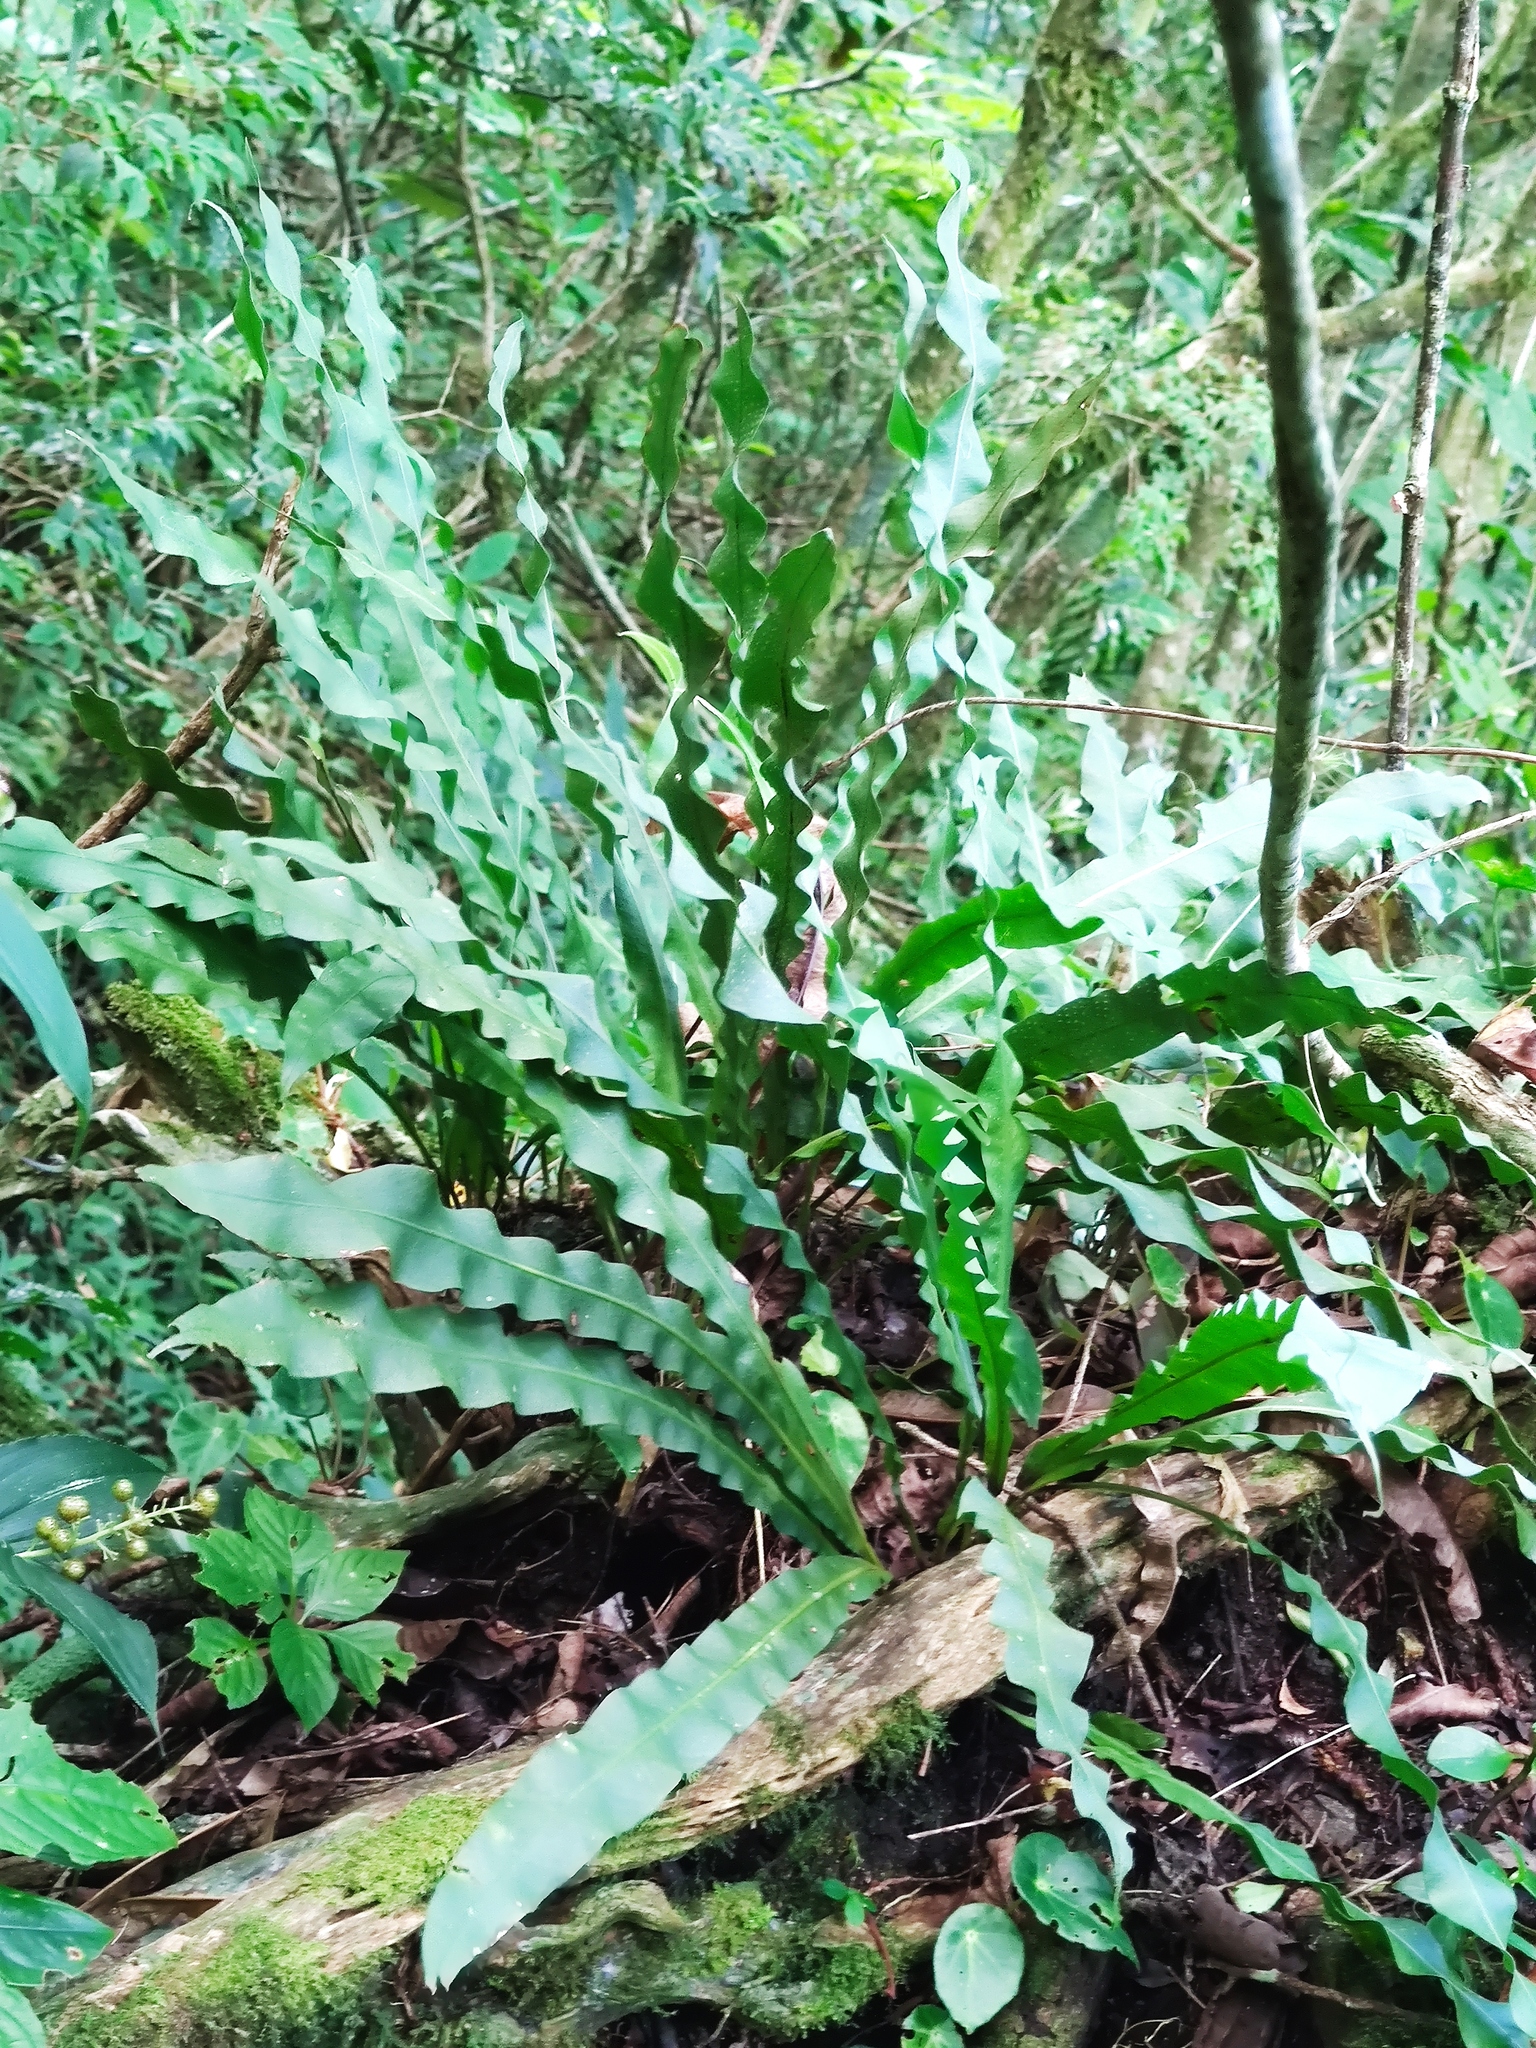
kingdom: Plantae
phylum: Tracheophyta
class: Polypodiopsida
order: Polypodiales
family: Polypodiaceae
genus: Niphidium
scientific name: Niphidium crassifolium
